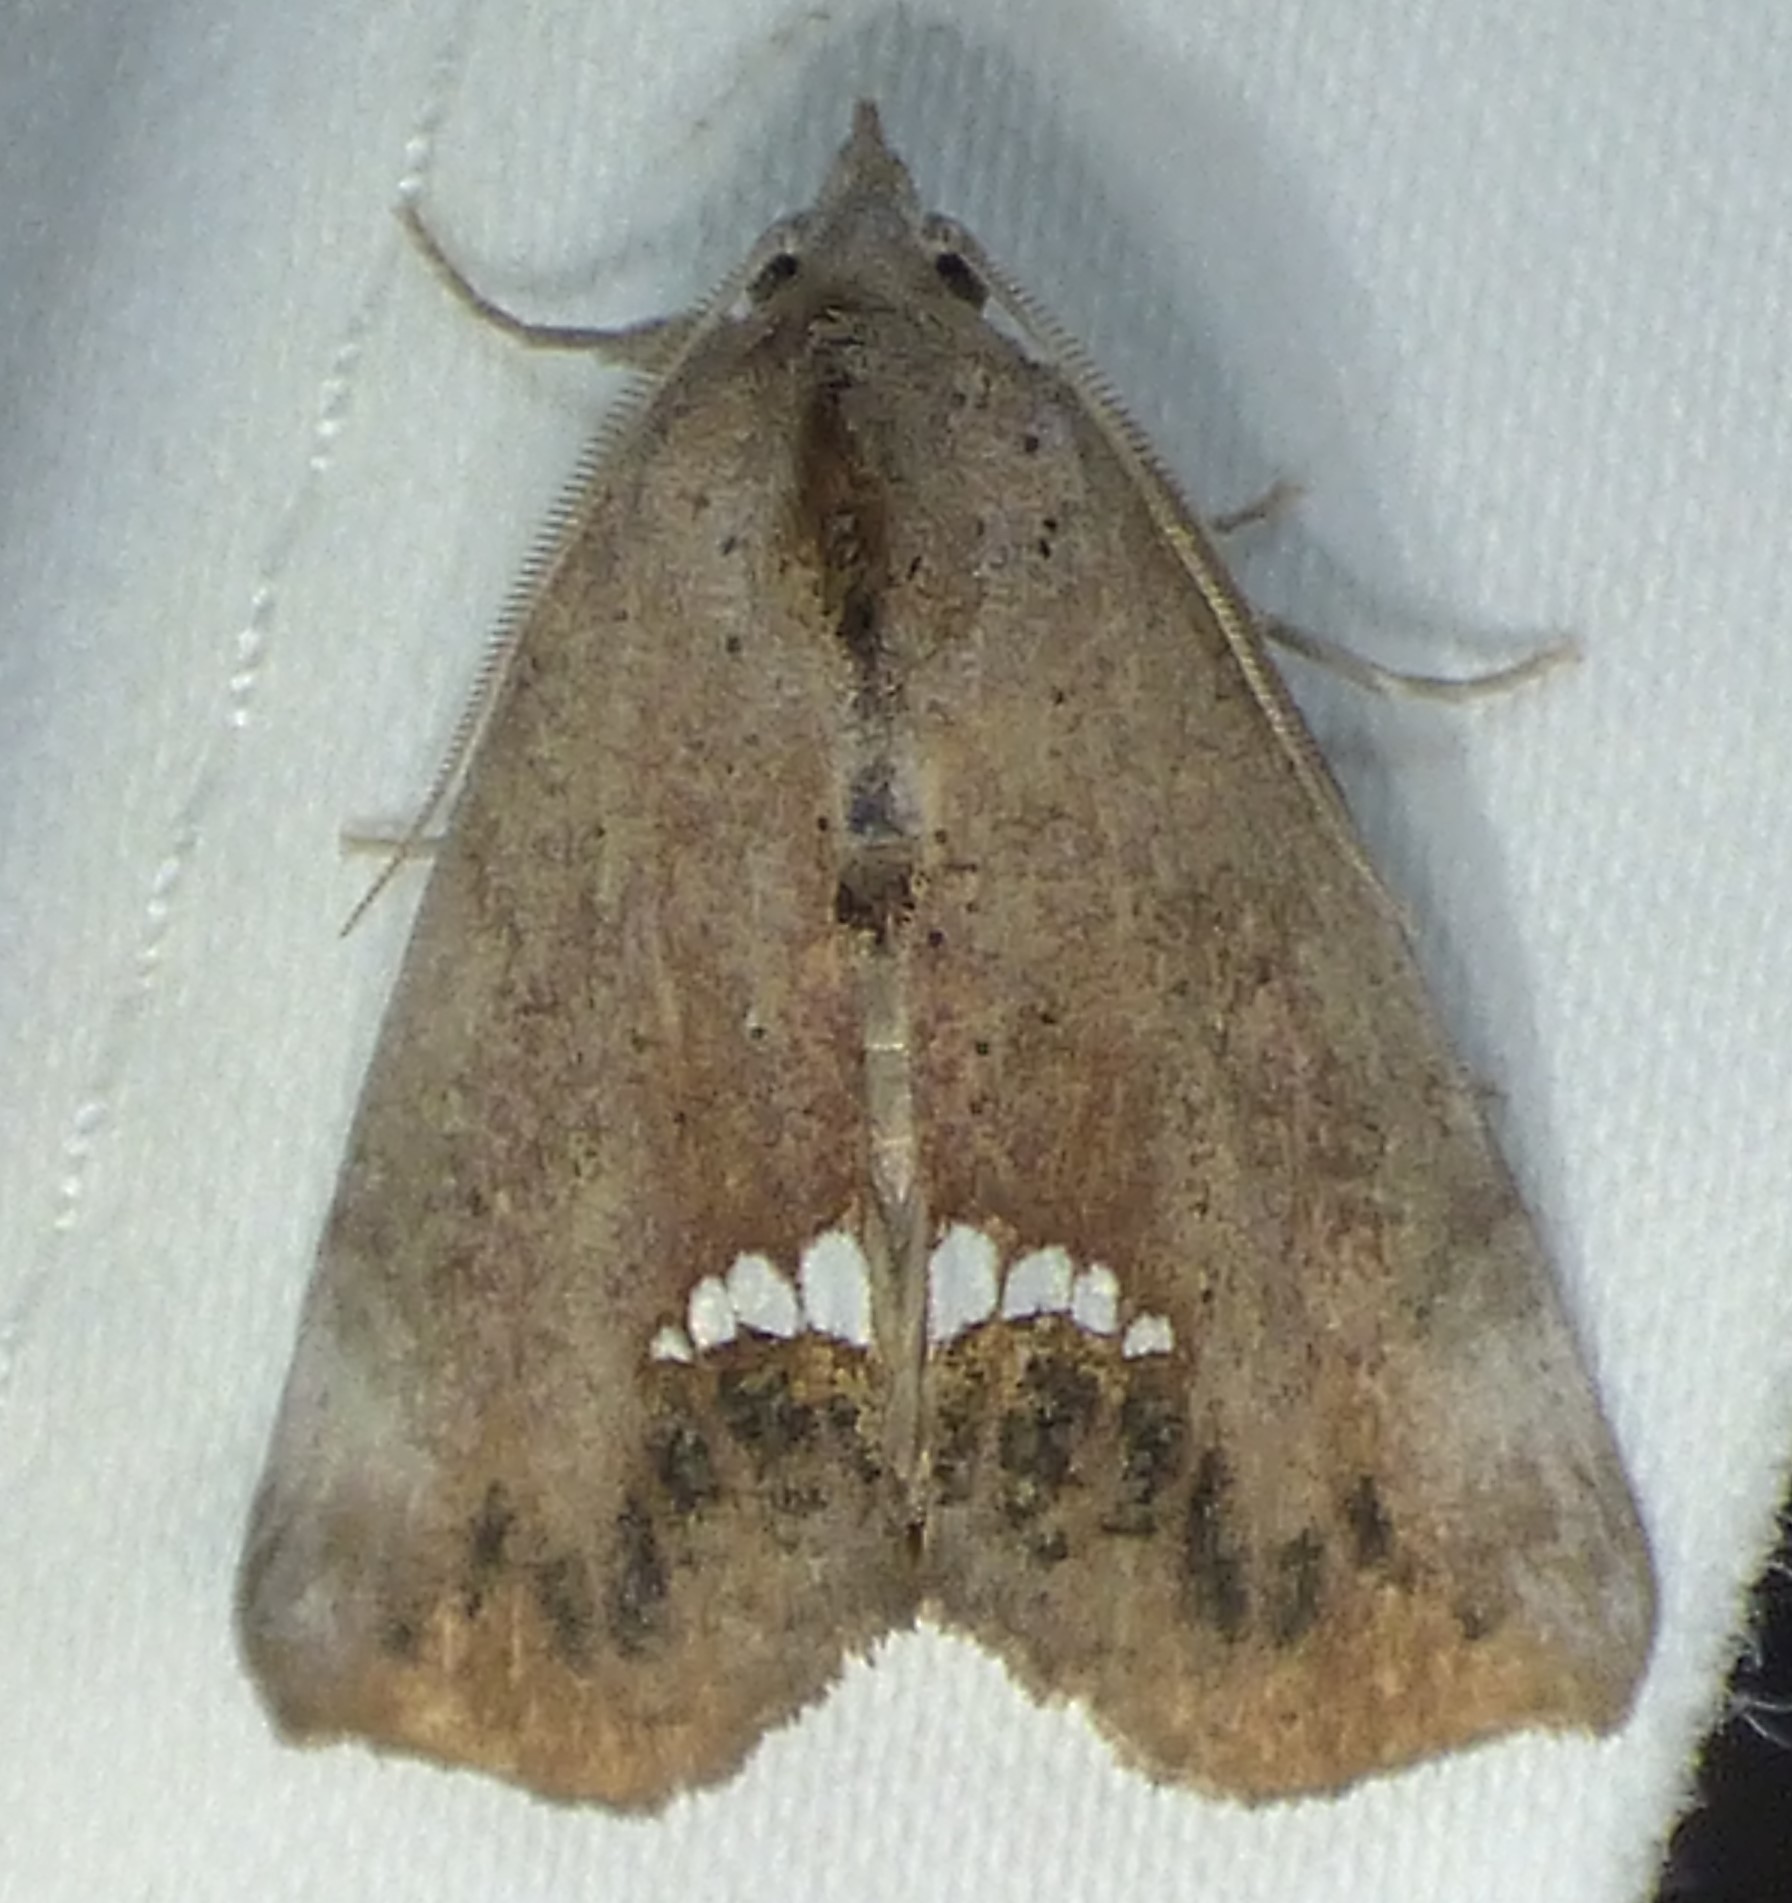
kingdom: Animalia
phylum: Arthropoda
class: Insecta
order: Lepidoptera
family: Erebidae
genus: Hypsoropha
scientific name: Hypsoropha hormos
